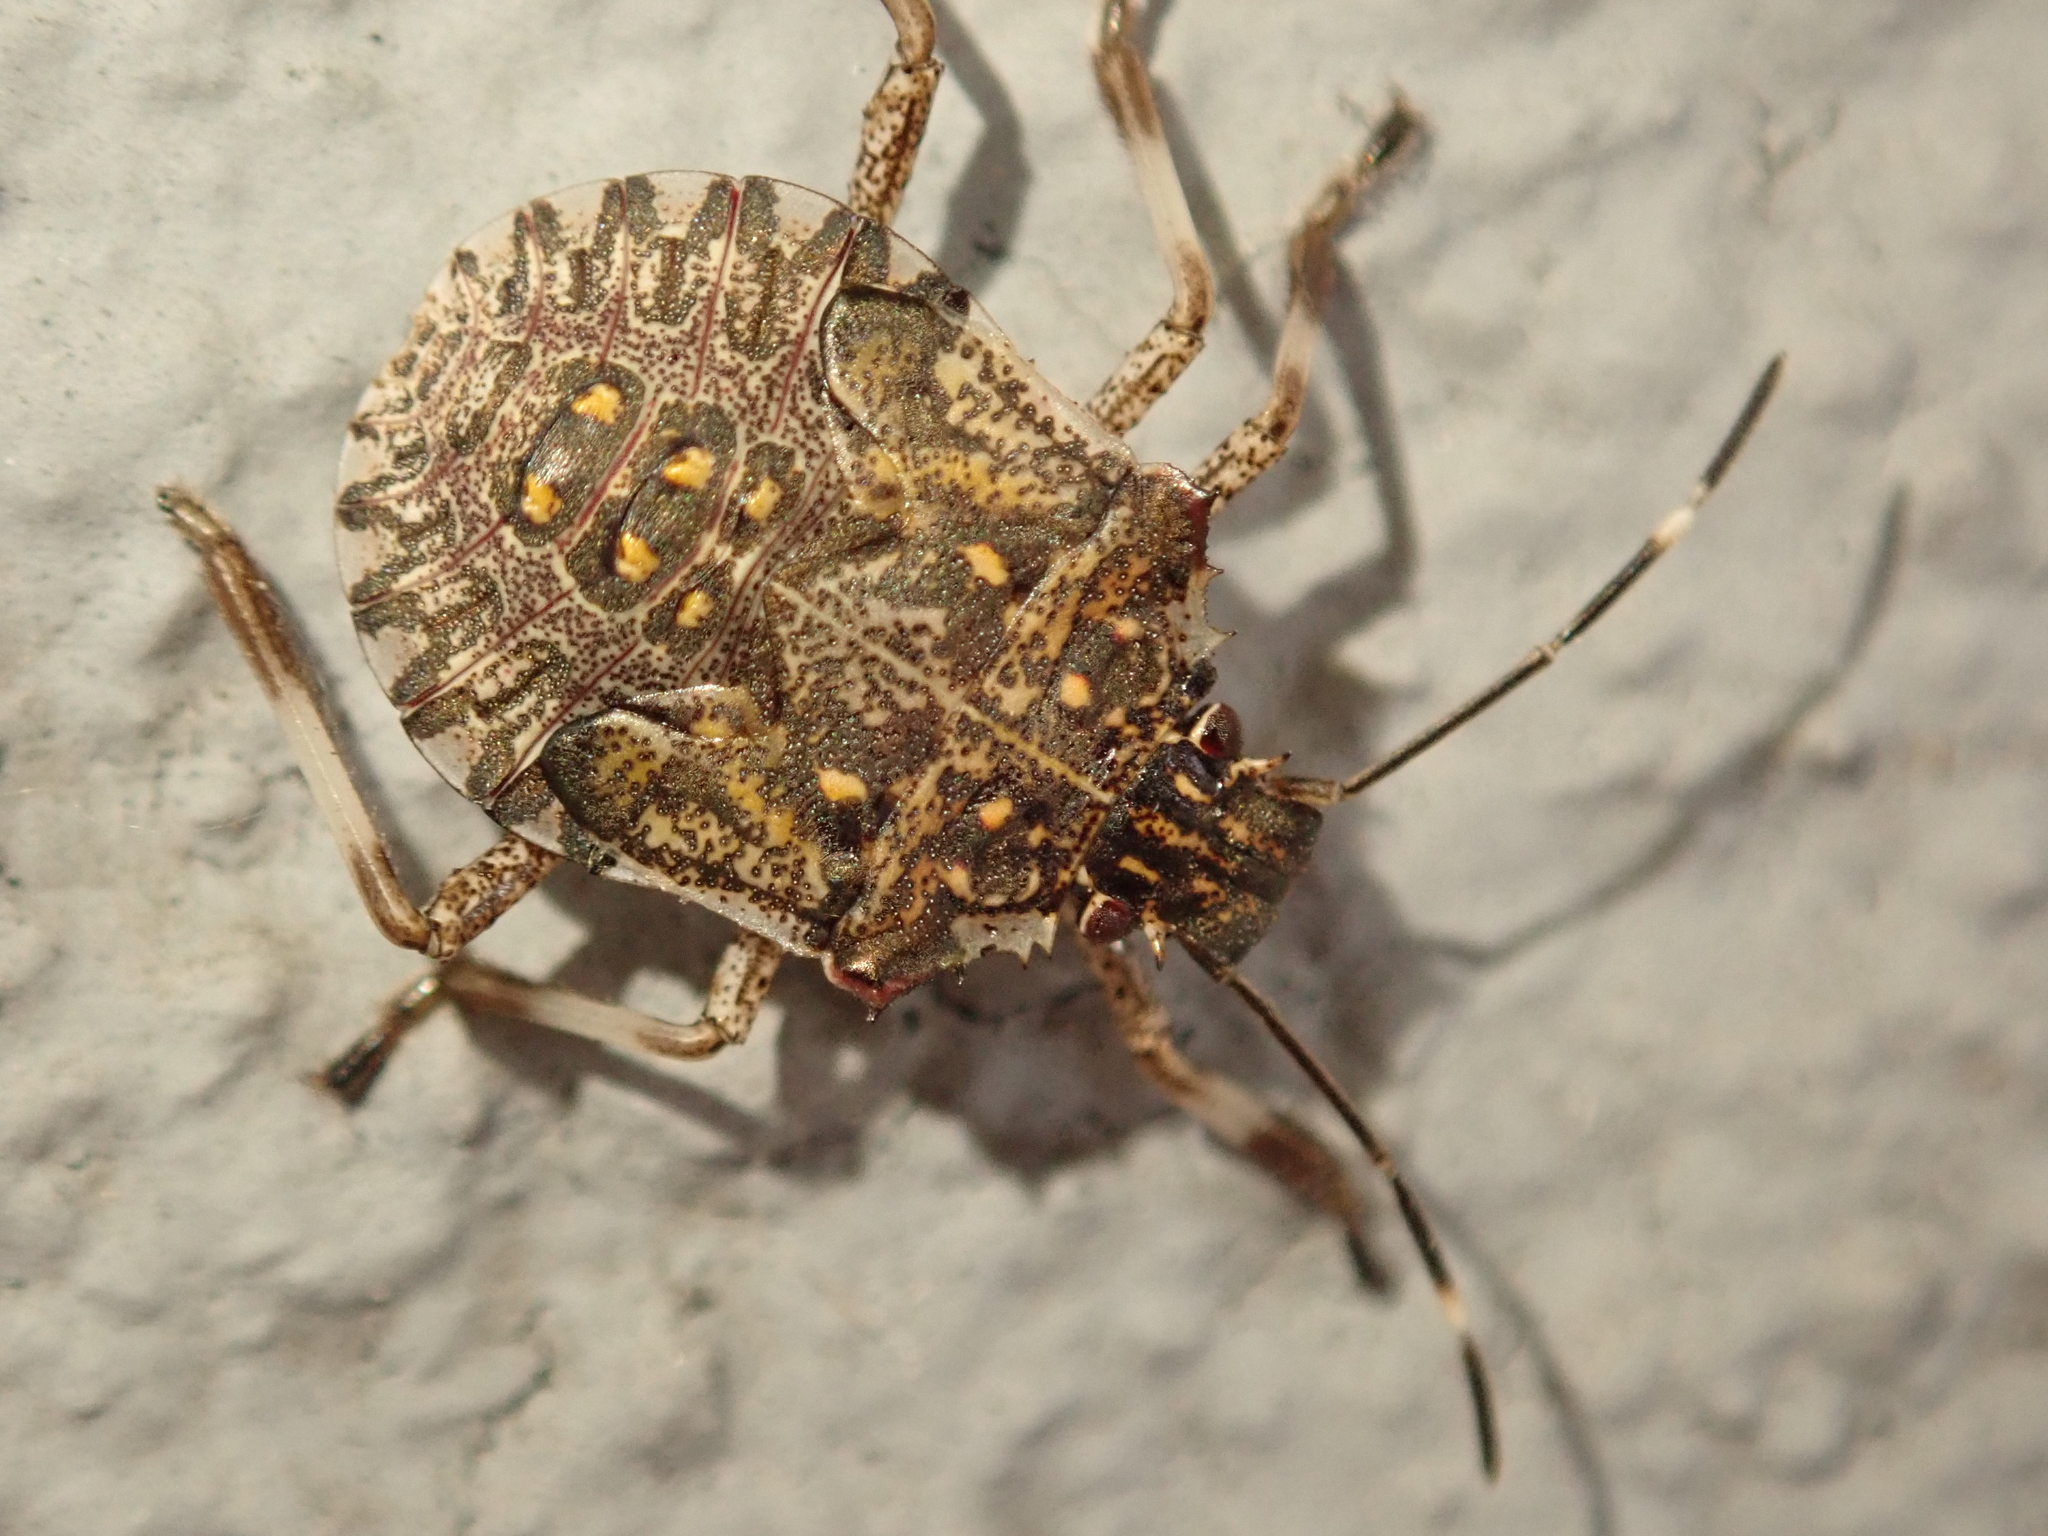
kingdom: Animalia
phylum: Arthropoda
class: Insecta
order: Hemiptera
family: Pentatomidae
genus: Halyomorpha
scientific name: Halyomorpha halys
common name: Brown marmorated stink bug
